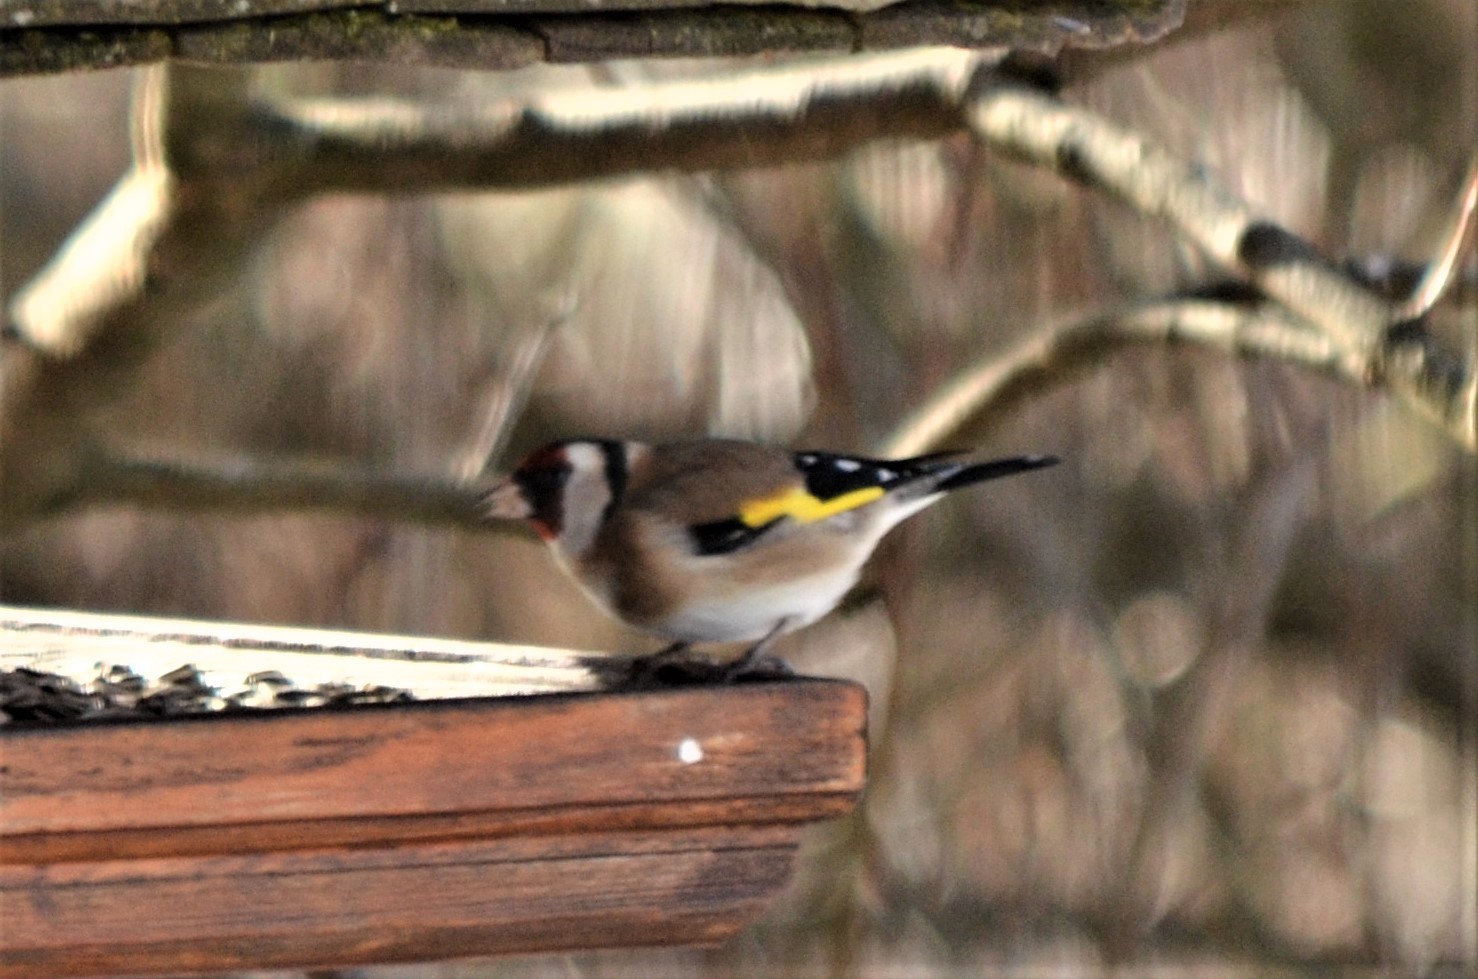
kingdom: Animalia
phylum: Chordata
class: Aves
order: Passeriformes
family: Fringillidae
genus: Carduelis
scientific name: Carduelis carduelis
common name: European goldfinch
